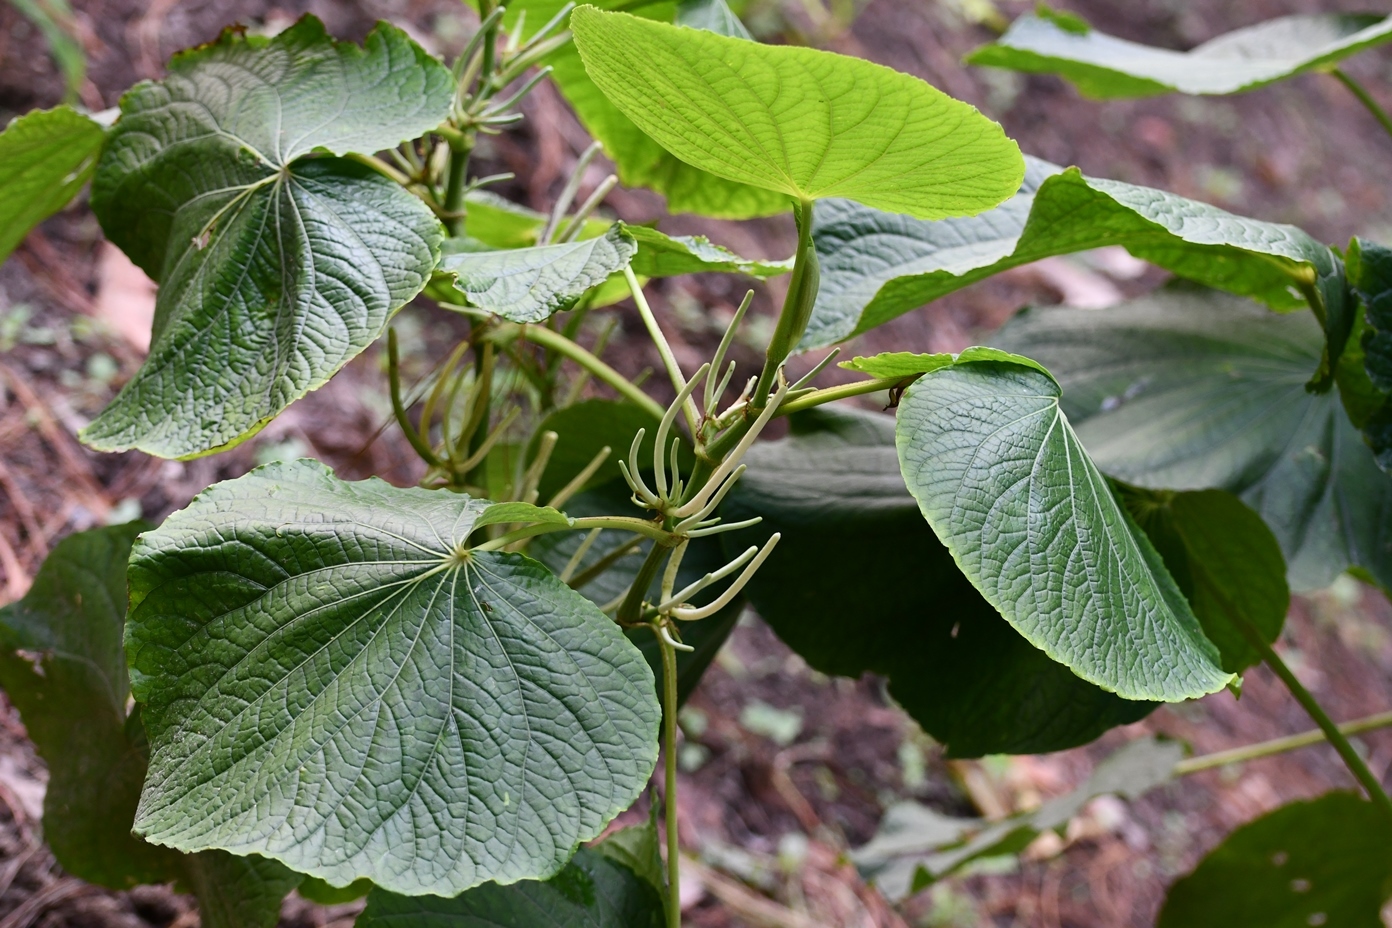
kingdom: Plantae
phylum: Tracheophyta
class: Magnoliopsida
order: Piperales
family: Piperaceae
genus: Piper
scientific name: Piper umbellatum
